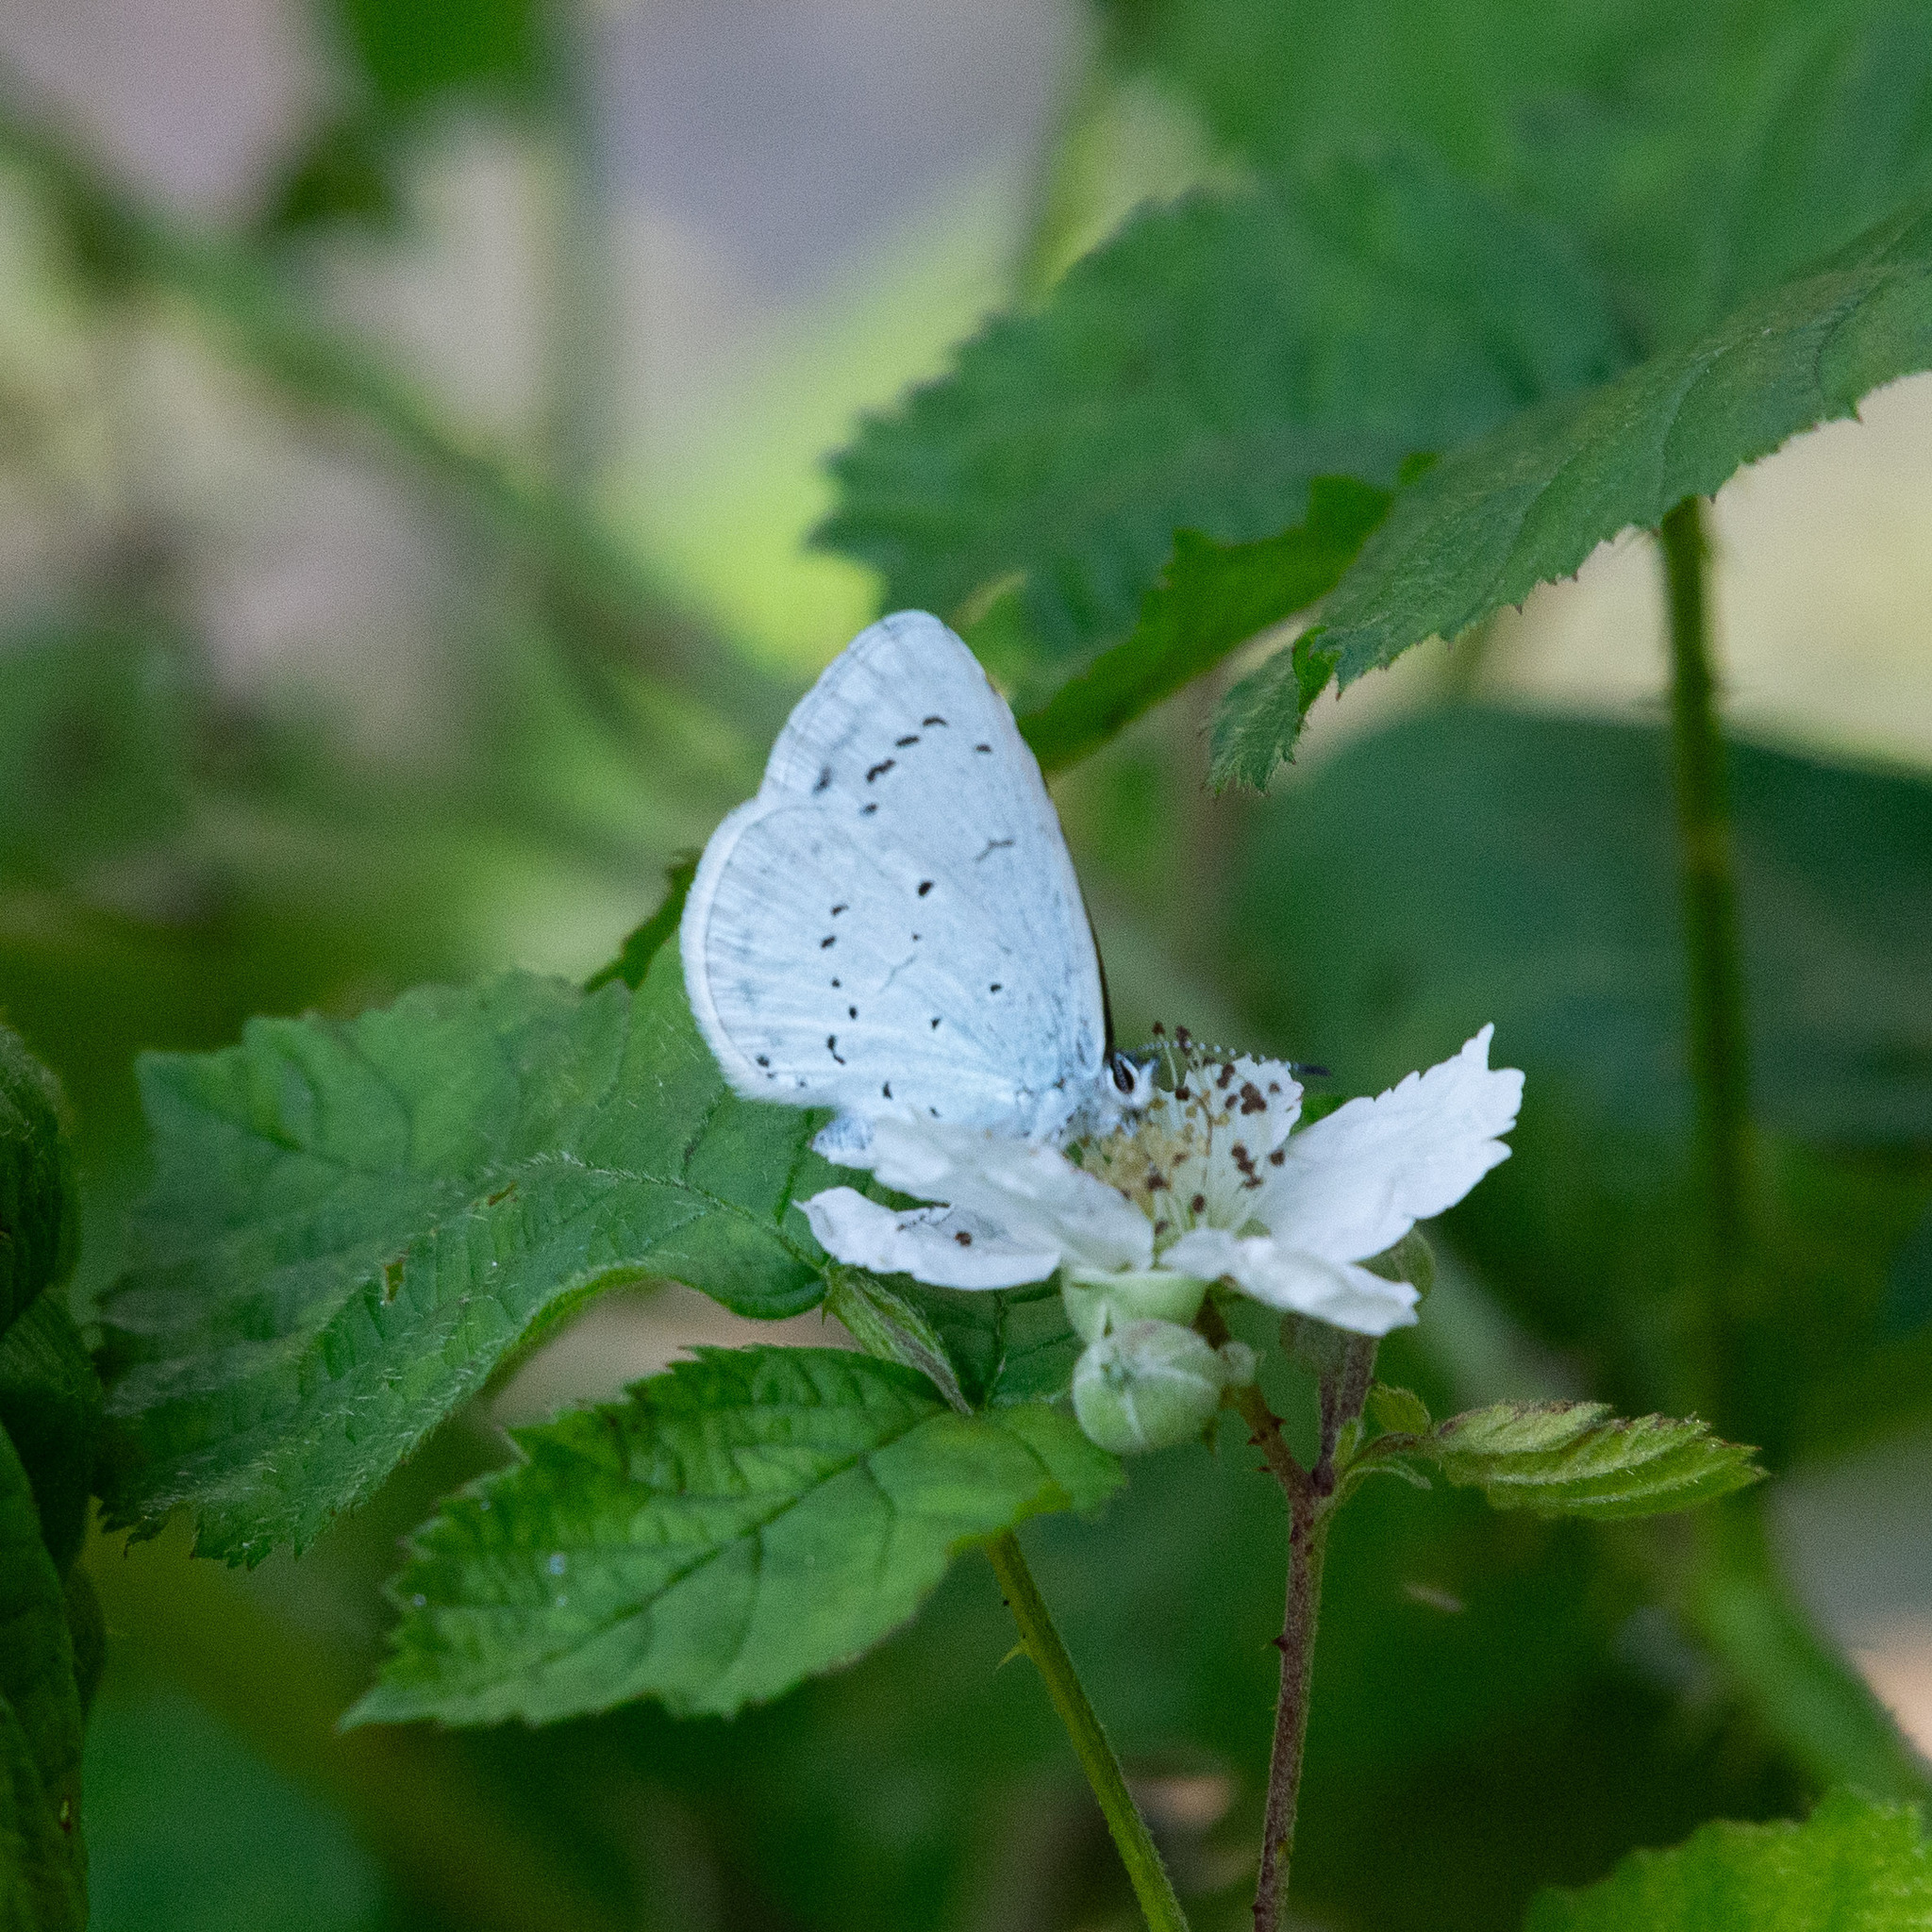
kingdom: Animalia
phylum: Arthropoda
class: Insecta
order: Lepidoptera
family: Lycaenidae
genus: Celastrina
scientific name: Celastrina argiolus
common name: Holly blue
